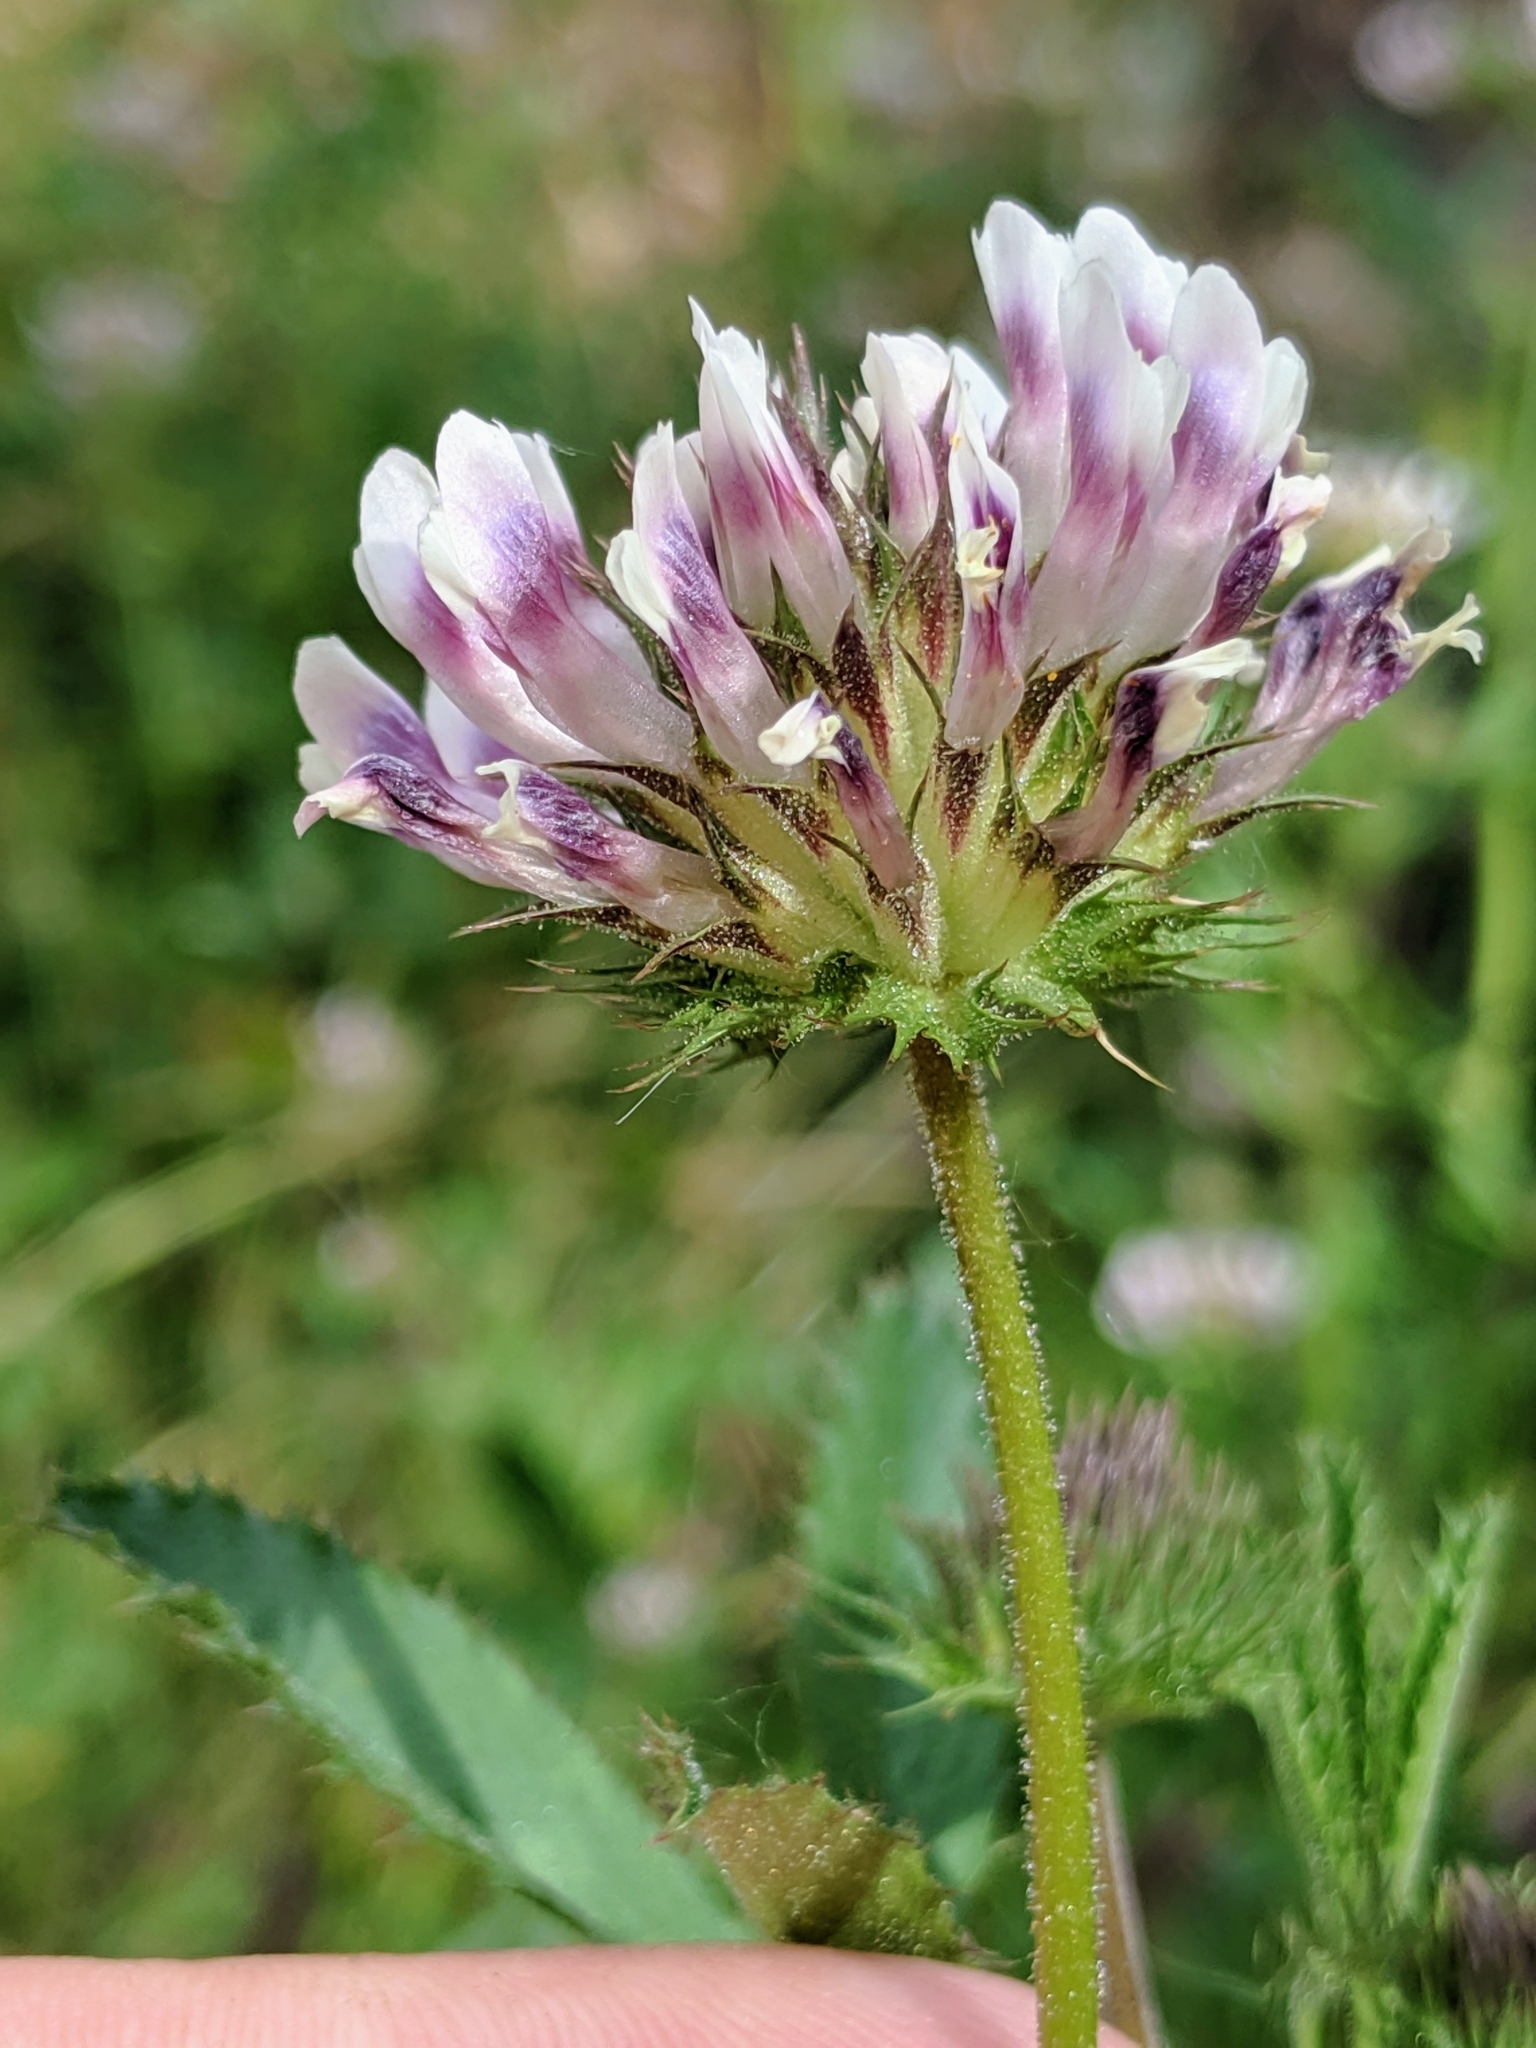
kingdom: Plantae
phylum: Tracheophyta
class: Magnoliopsida
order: Fabales
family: Fabaceae
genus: Trifolium
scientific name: Trifolium obtusiflorum
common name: Clammy clover
